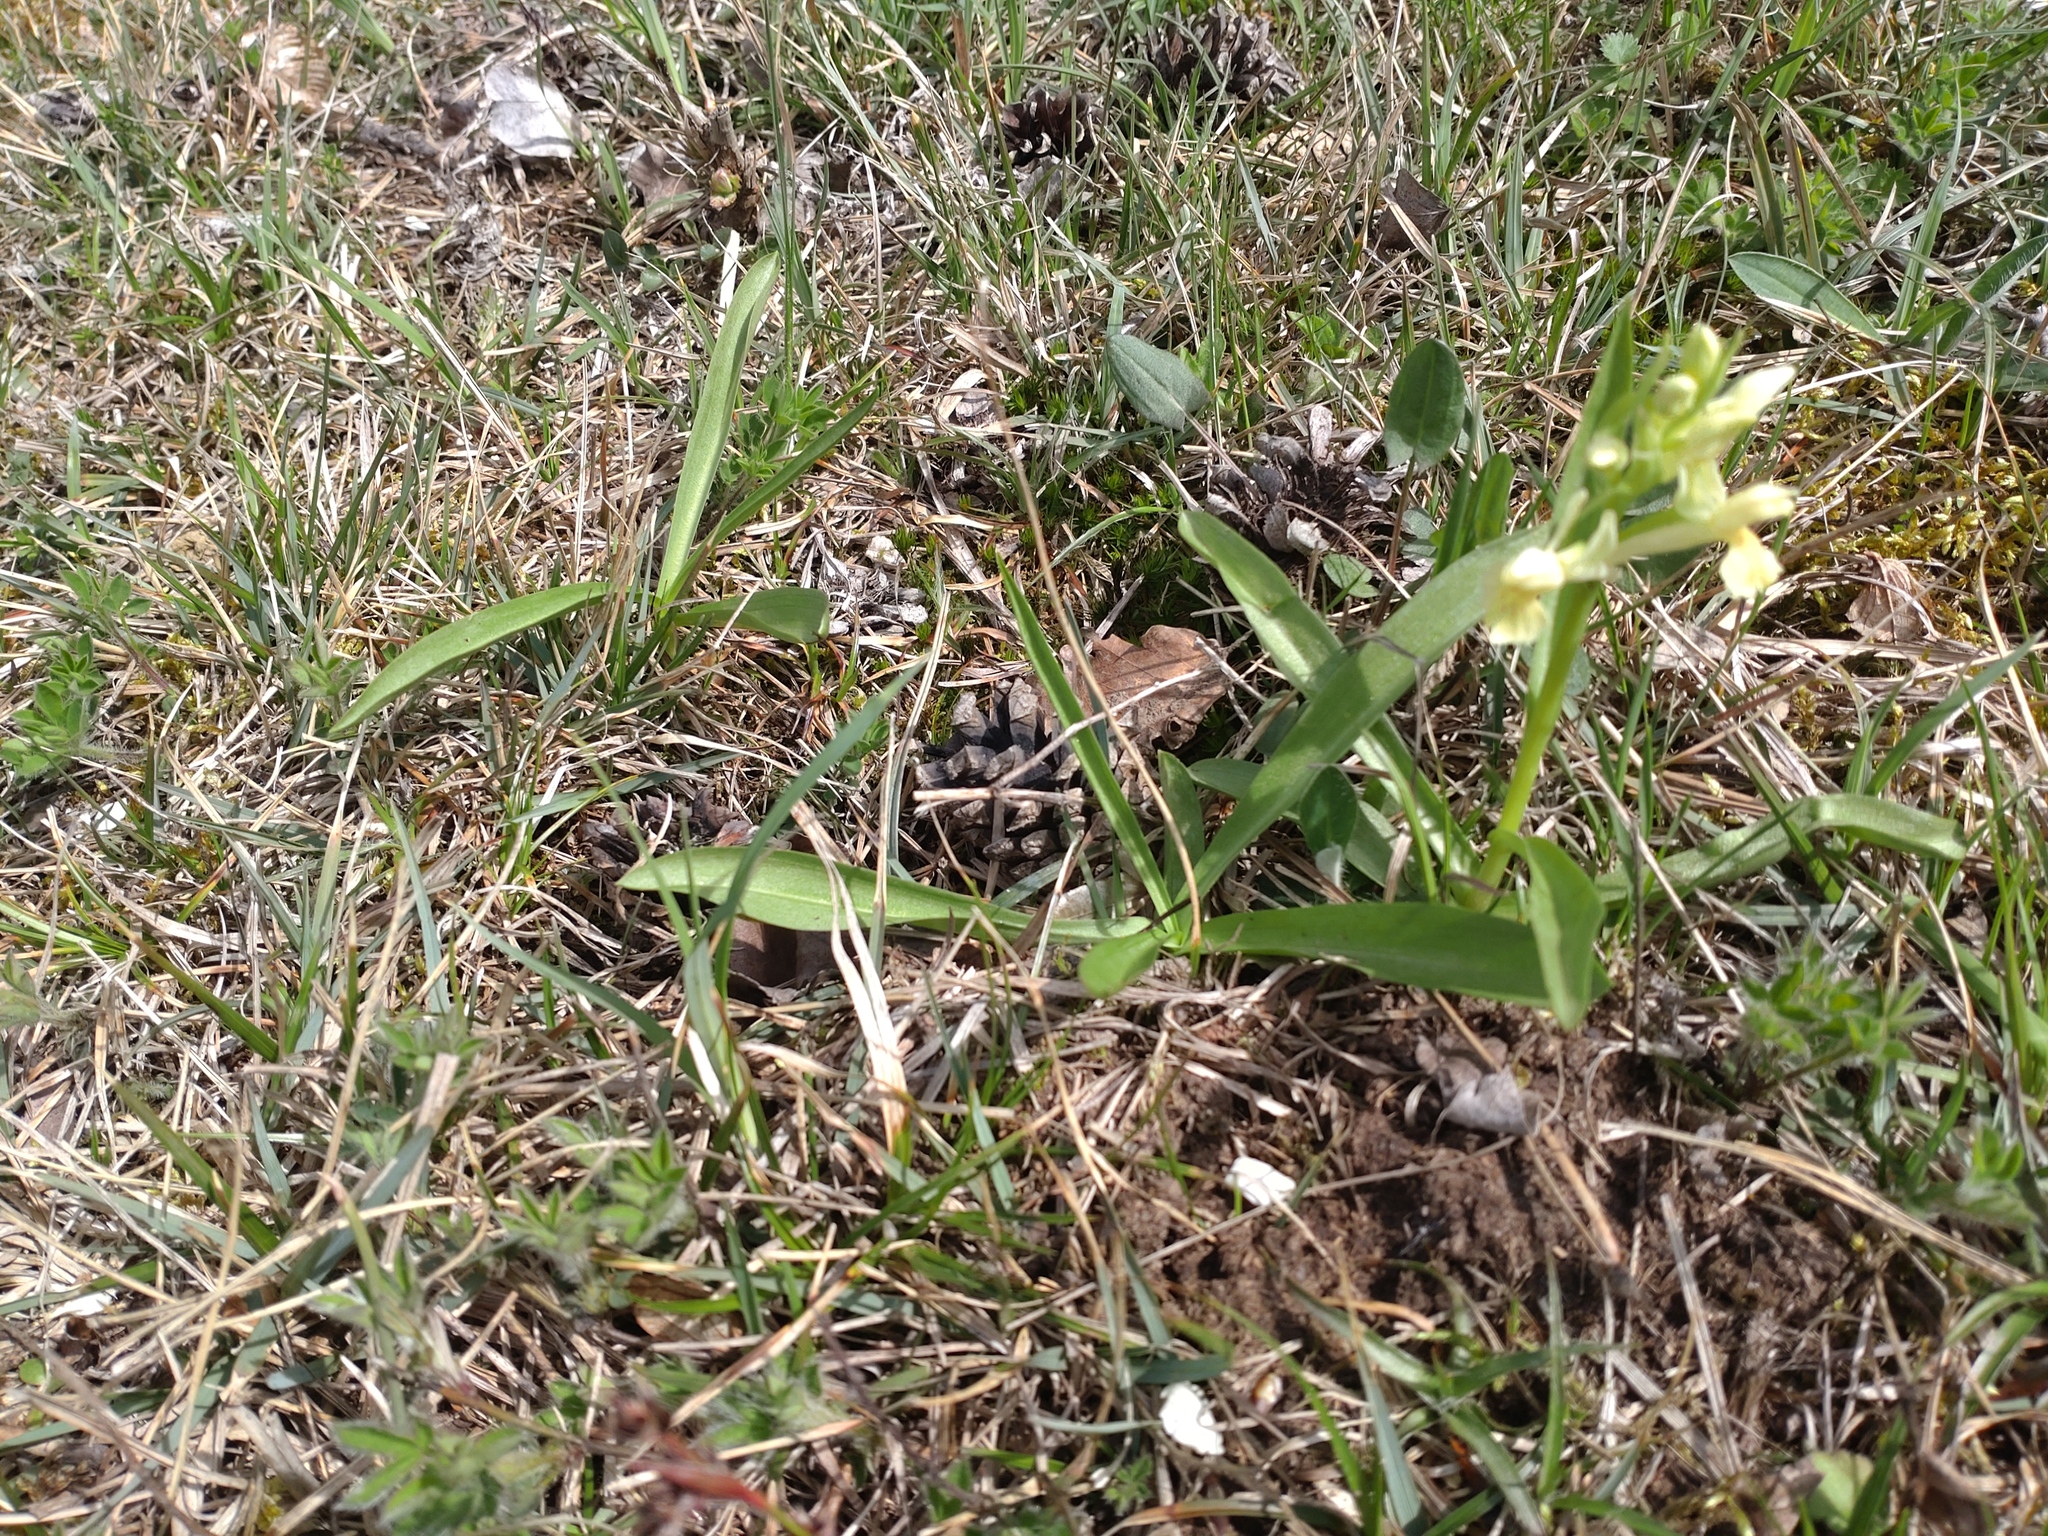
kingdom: Plantae
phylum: Tracheophyta
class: Liliopsida
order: Asparagales
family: Orchidaceae
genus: Dactylorhiza
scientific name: Dactylorhiza sambucina
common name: Elder-flowered orchid
